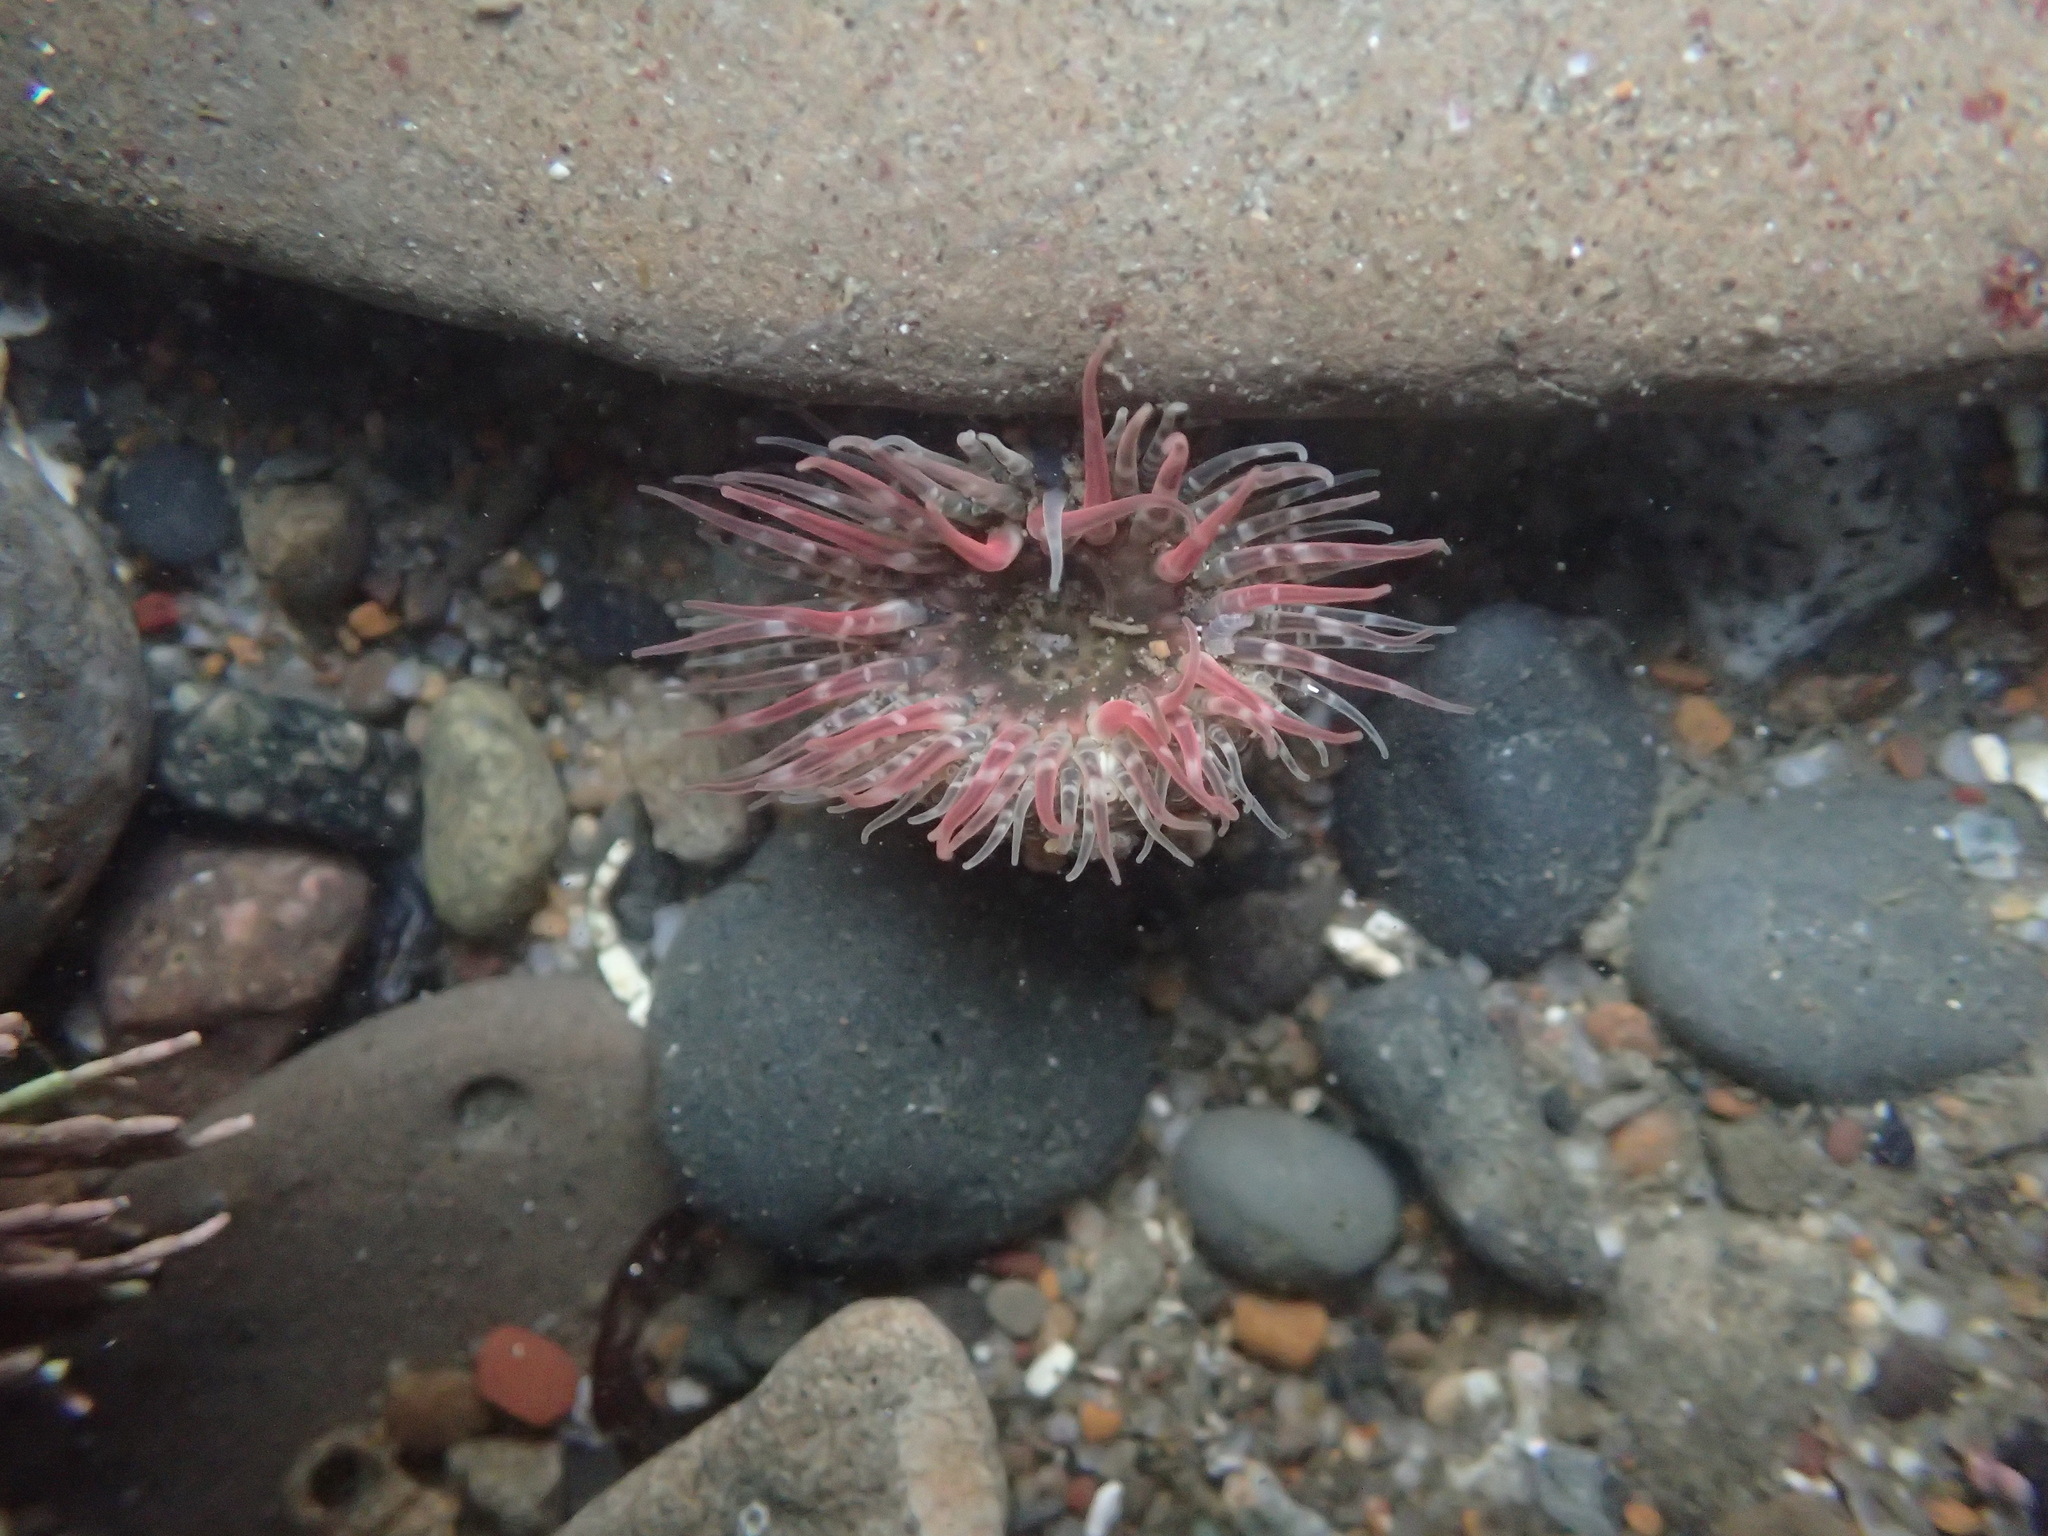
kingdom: Animalia
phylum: Cnidaria
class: Anthozoa
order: Actiniaria
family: Actiniidae
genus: Anthopleura
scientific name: Anthopleura artemisia
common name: Buried sea anemone
